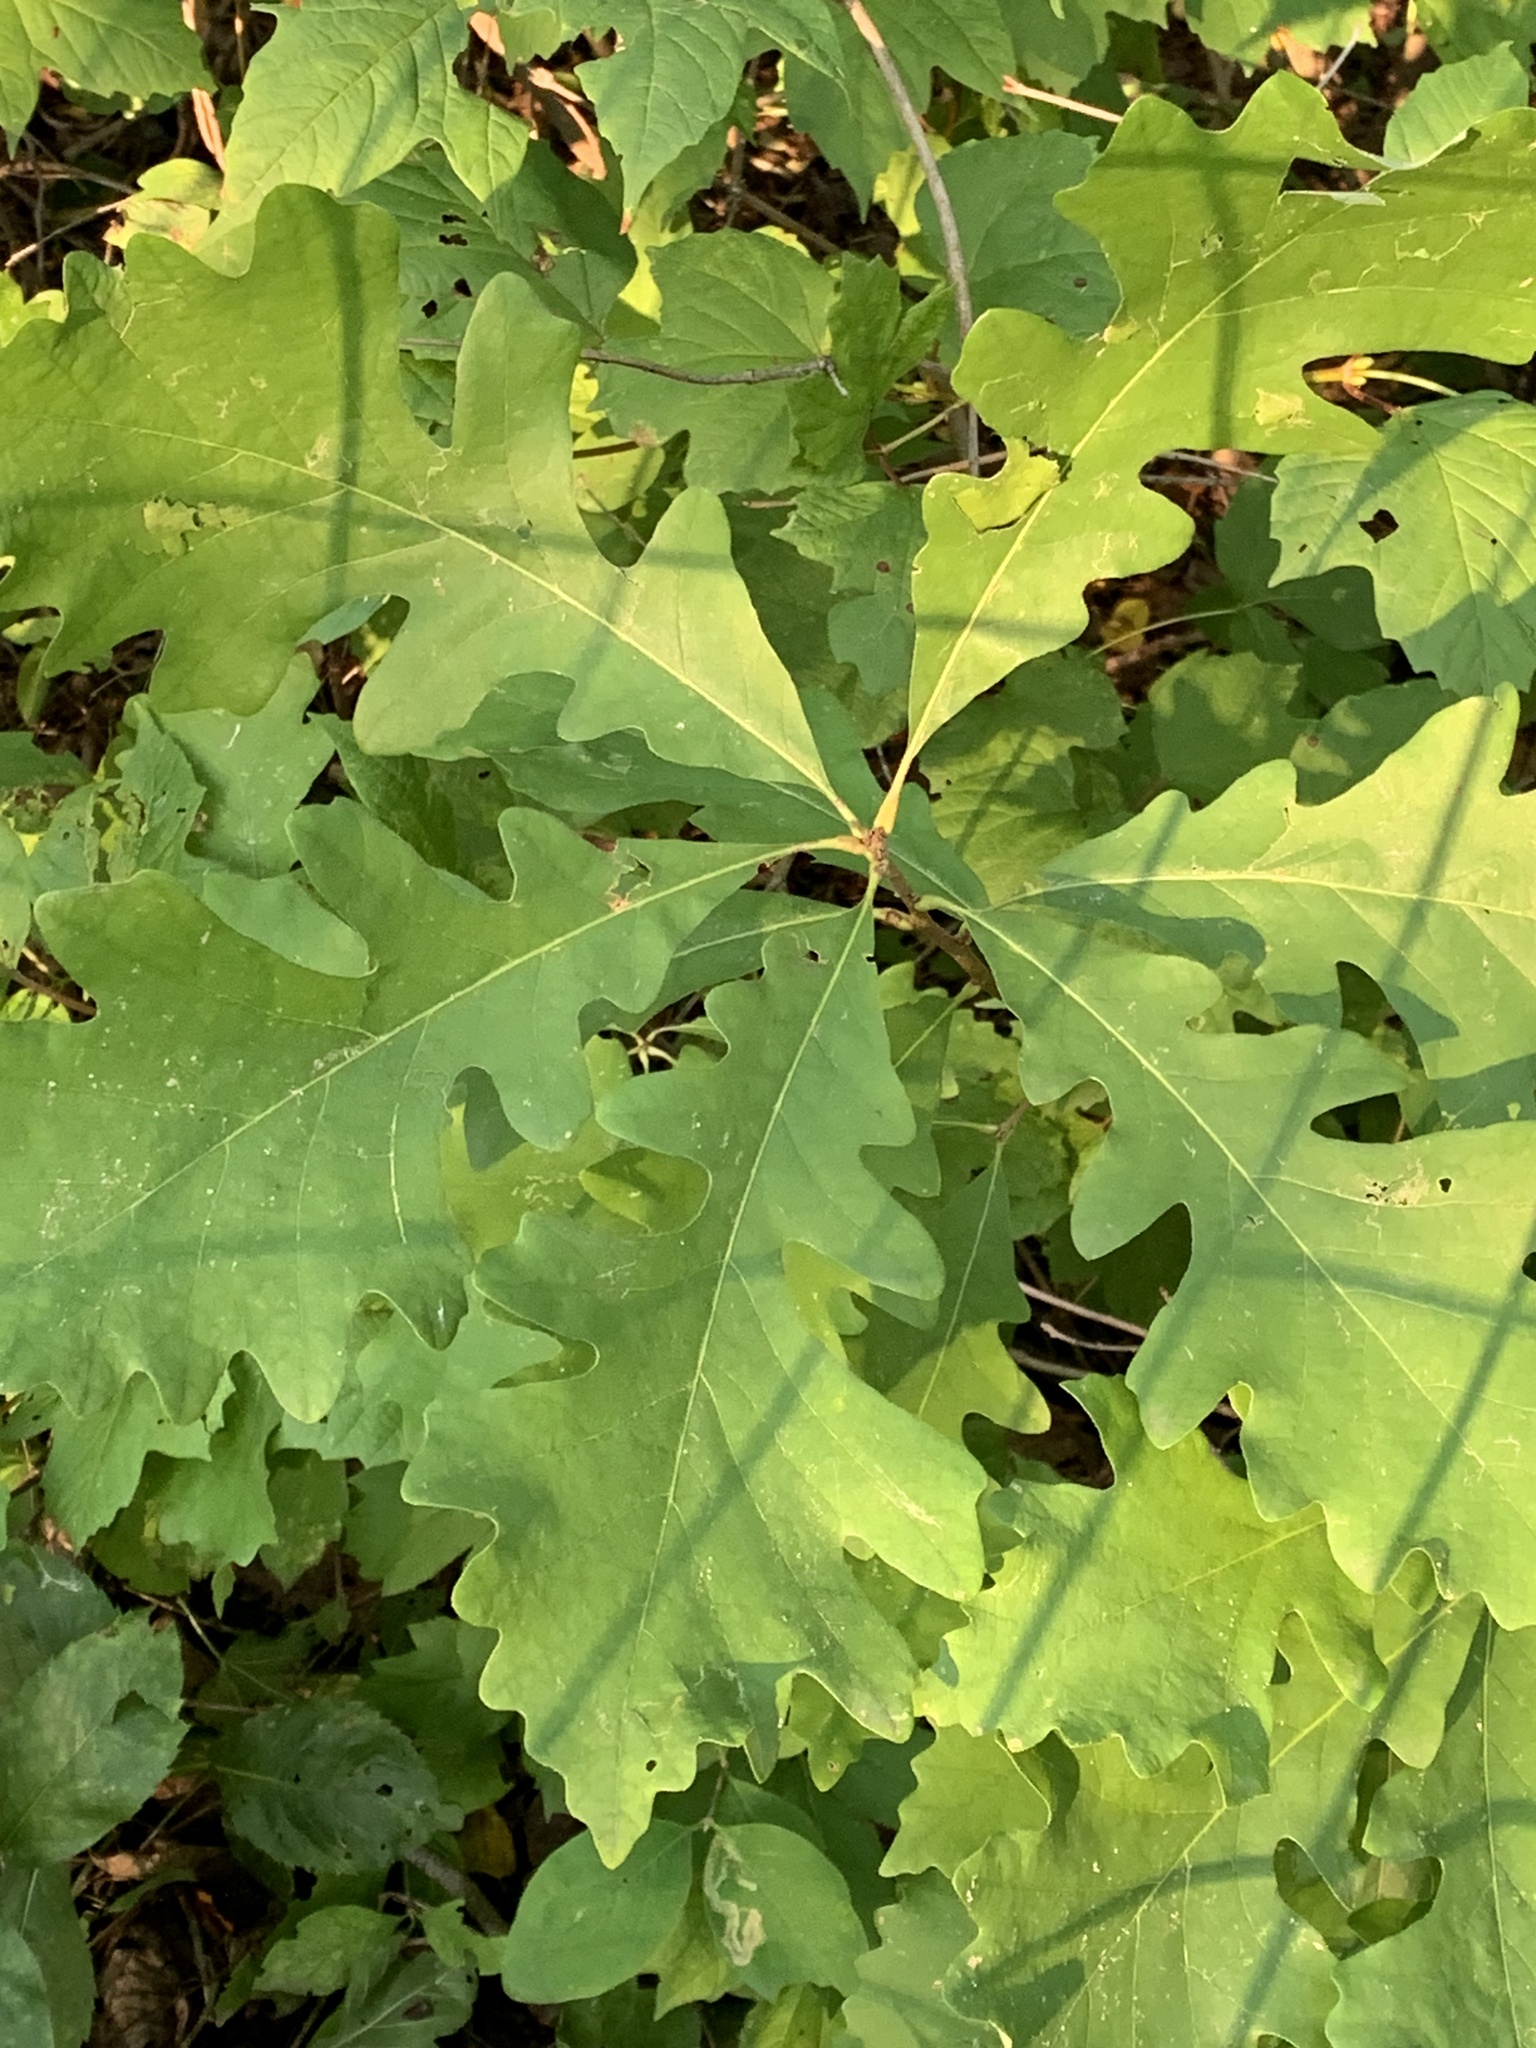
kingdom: Plantae
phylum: Tracheophyta
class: Magnoliopsida
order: Fagales
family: Fagaceae
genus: Quercus
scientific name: Quercus macrocarpa
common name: Bur oak
